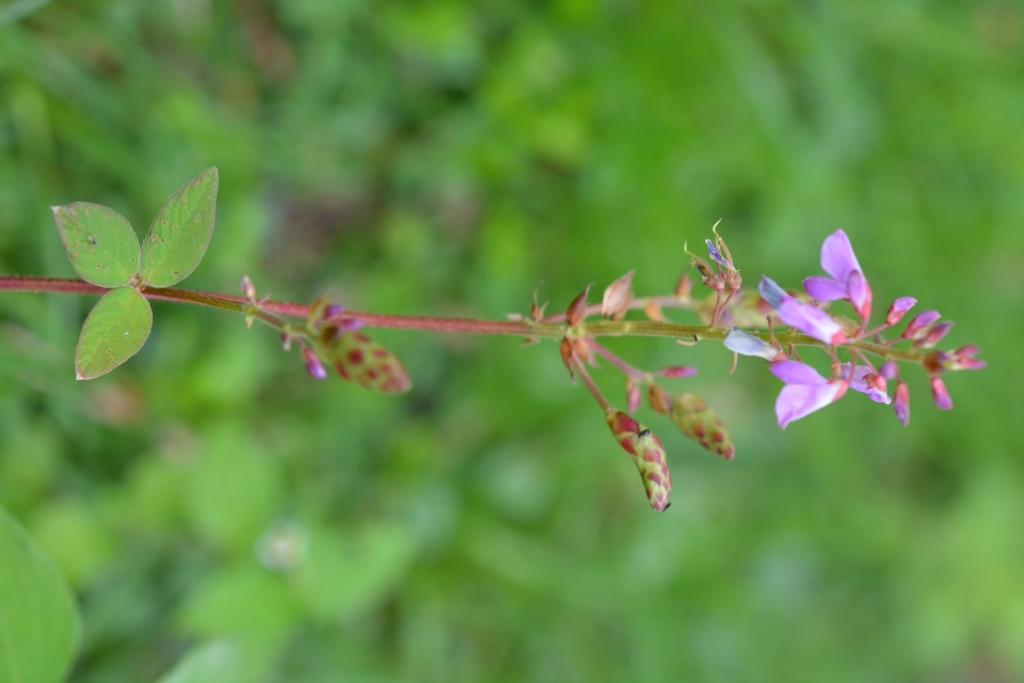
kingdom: Plantae
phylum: Tracheophyta
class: Magnoliopsida
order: Fabales
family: Fabaceae
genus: Desmodium
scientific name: Desmodium pringlei
